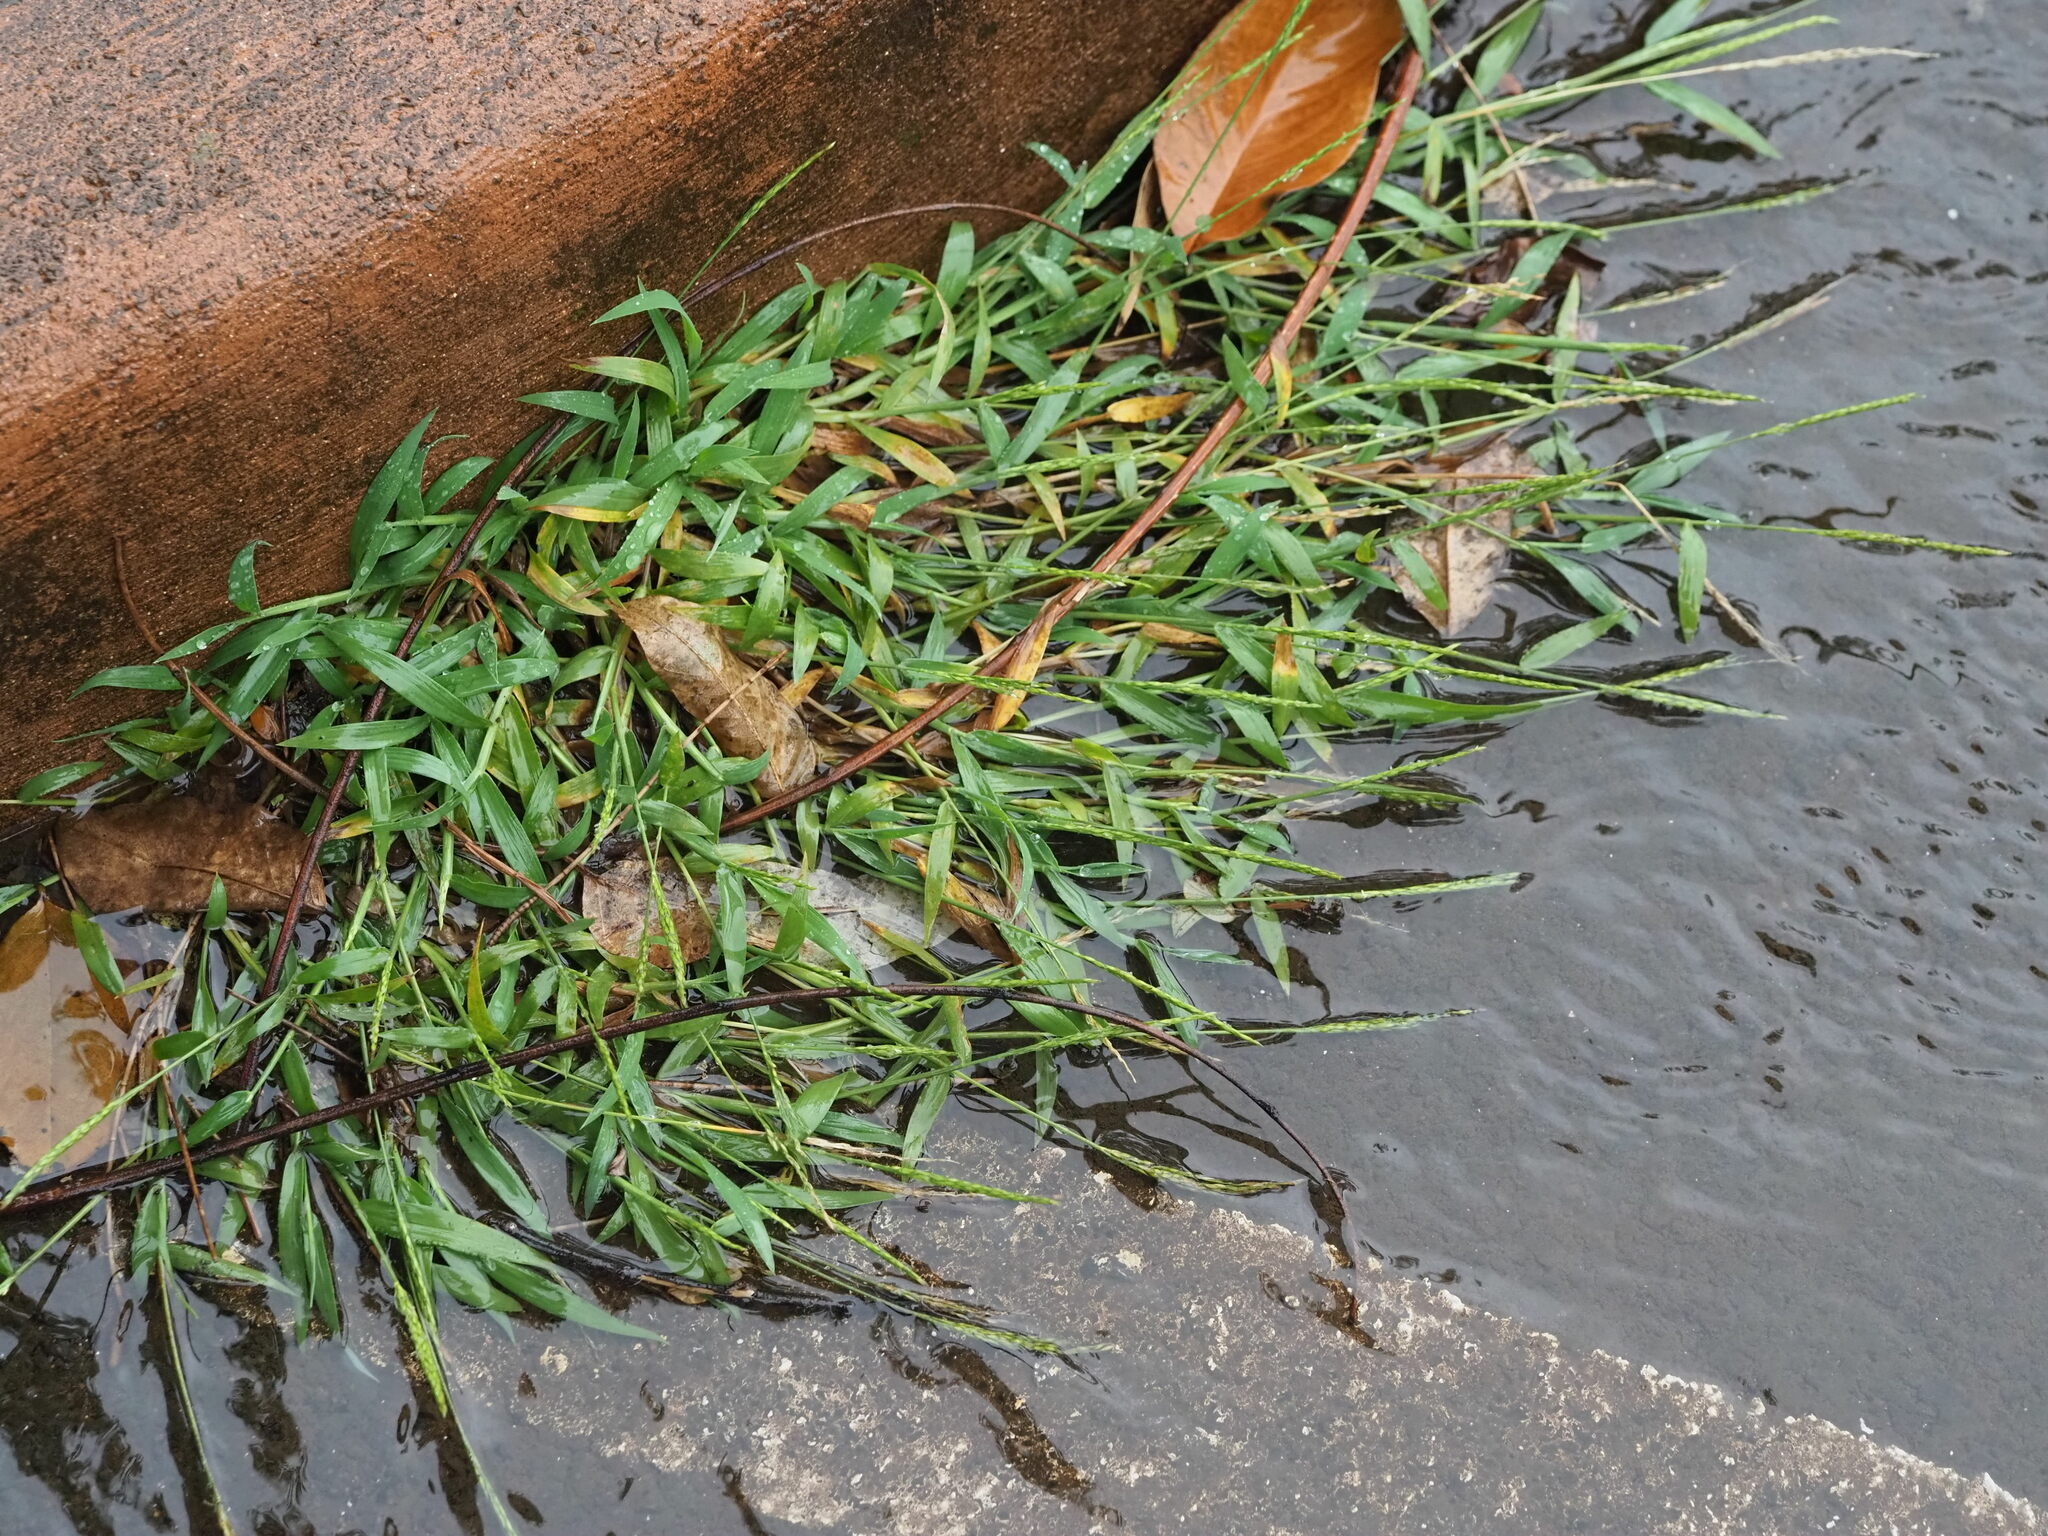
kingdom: Plantae
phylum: Tracheophyta
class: Liliopsida
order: Poales
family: Poaceae
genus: Digitaria
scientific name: Digitaria ciliaris
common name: Tropical finger-grass
